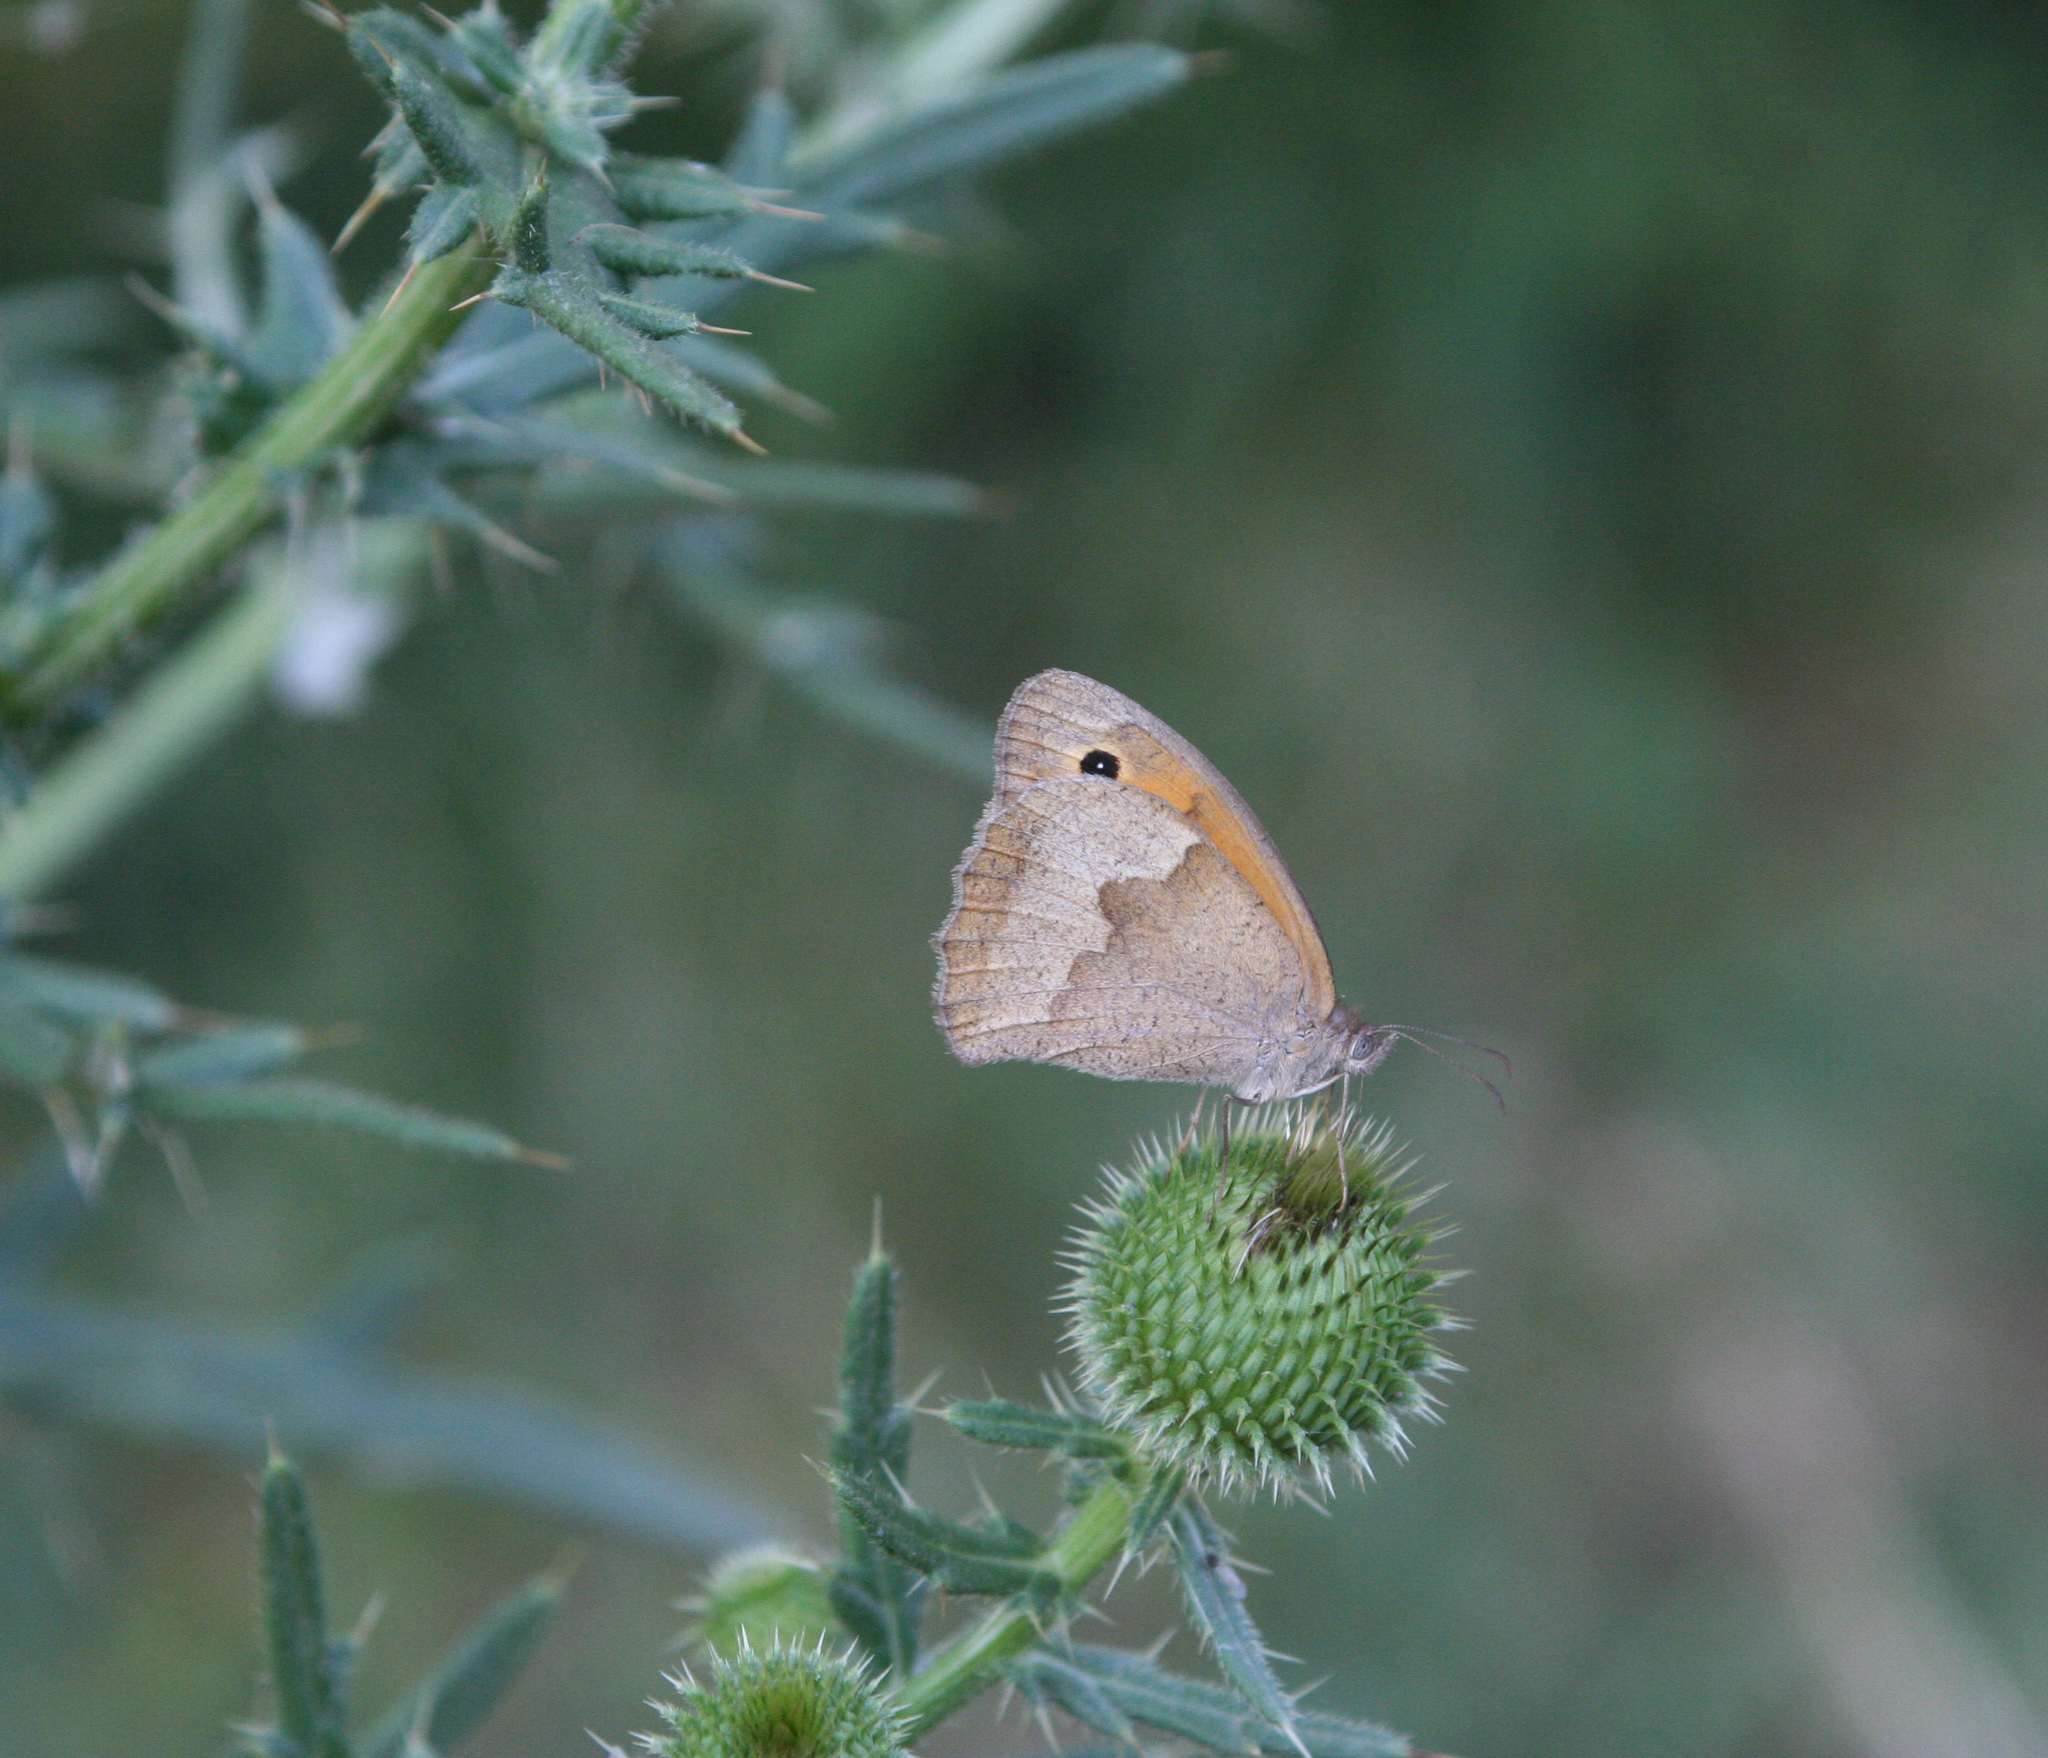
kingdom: Animalia
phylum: Arthropoda
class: Insecta
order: Lepidoptera
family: Nymphalidae
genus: Maniola
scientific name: Maniola jurtina
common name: Meadow brown
